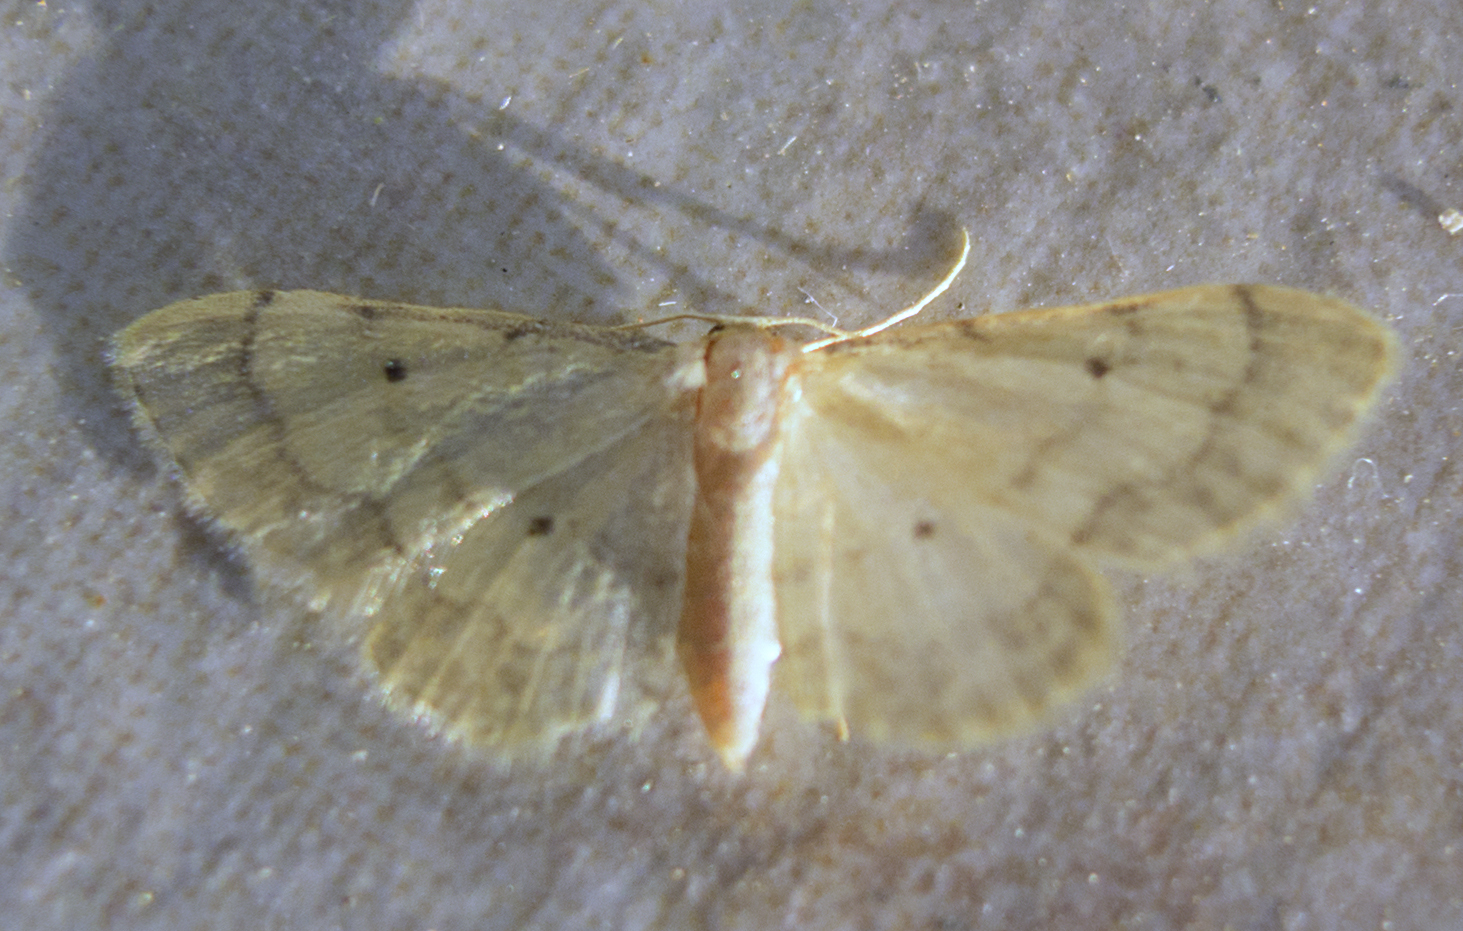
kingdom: Animalia
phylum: Arthropoda
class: Insecta
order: Lepidoptera
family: Geometridae
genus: Idaea
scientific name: Idaea politaria
